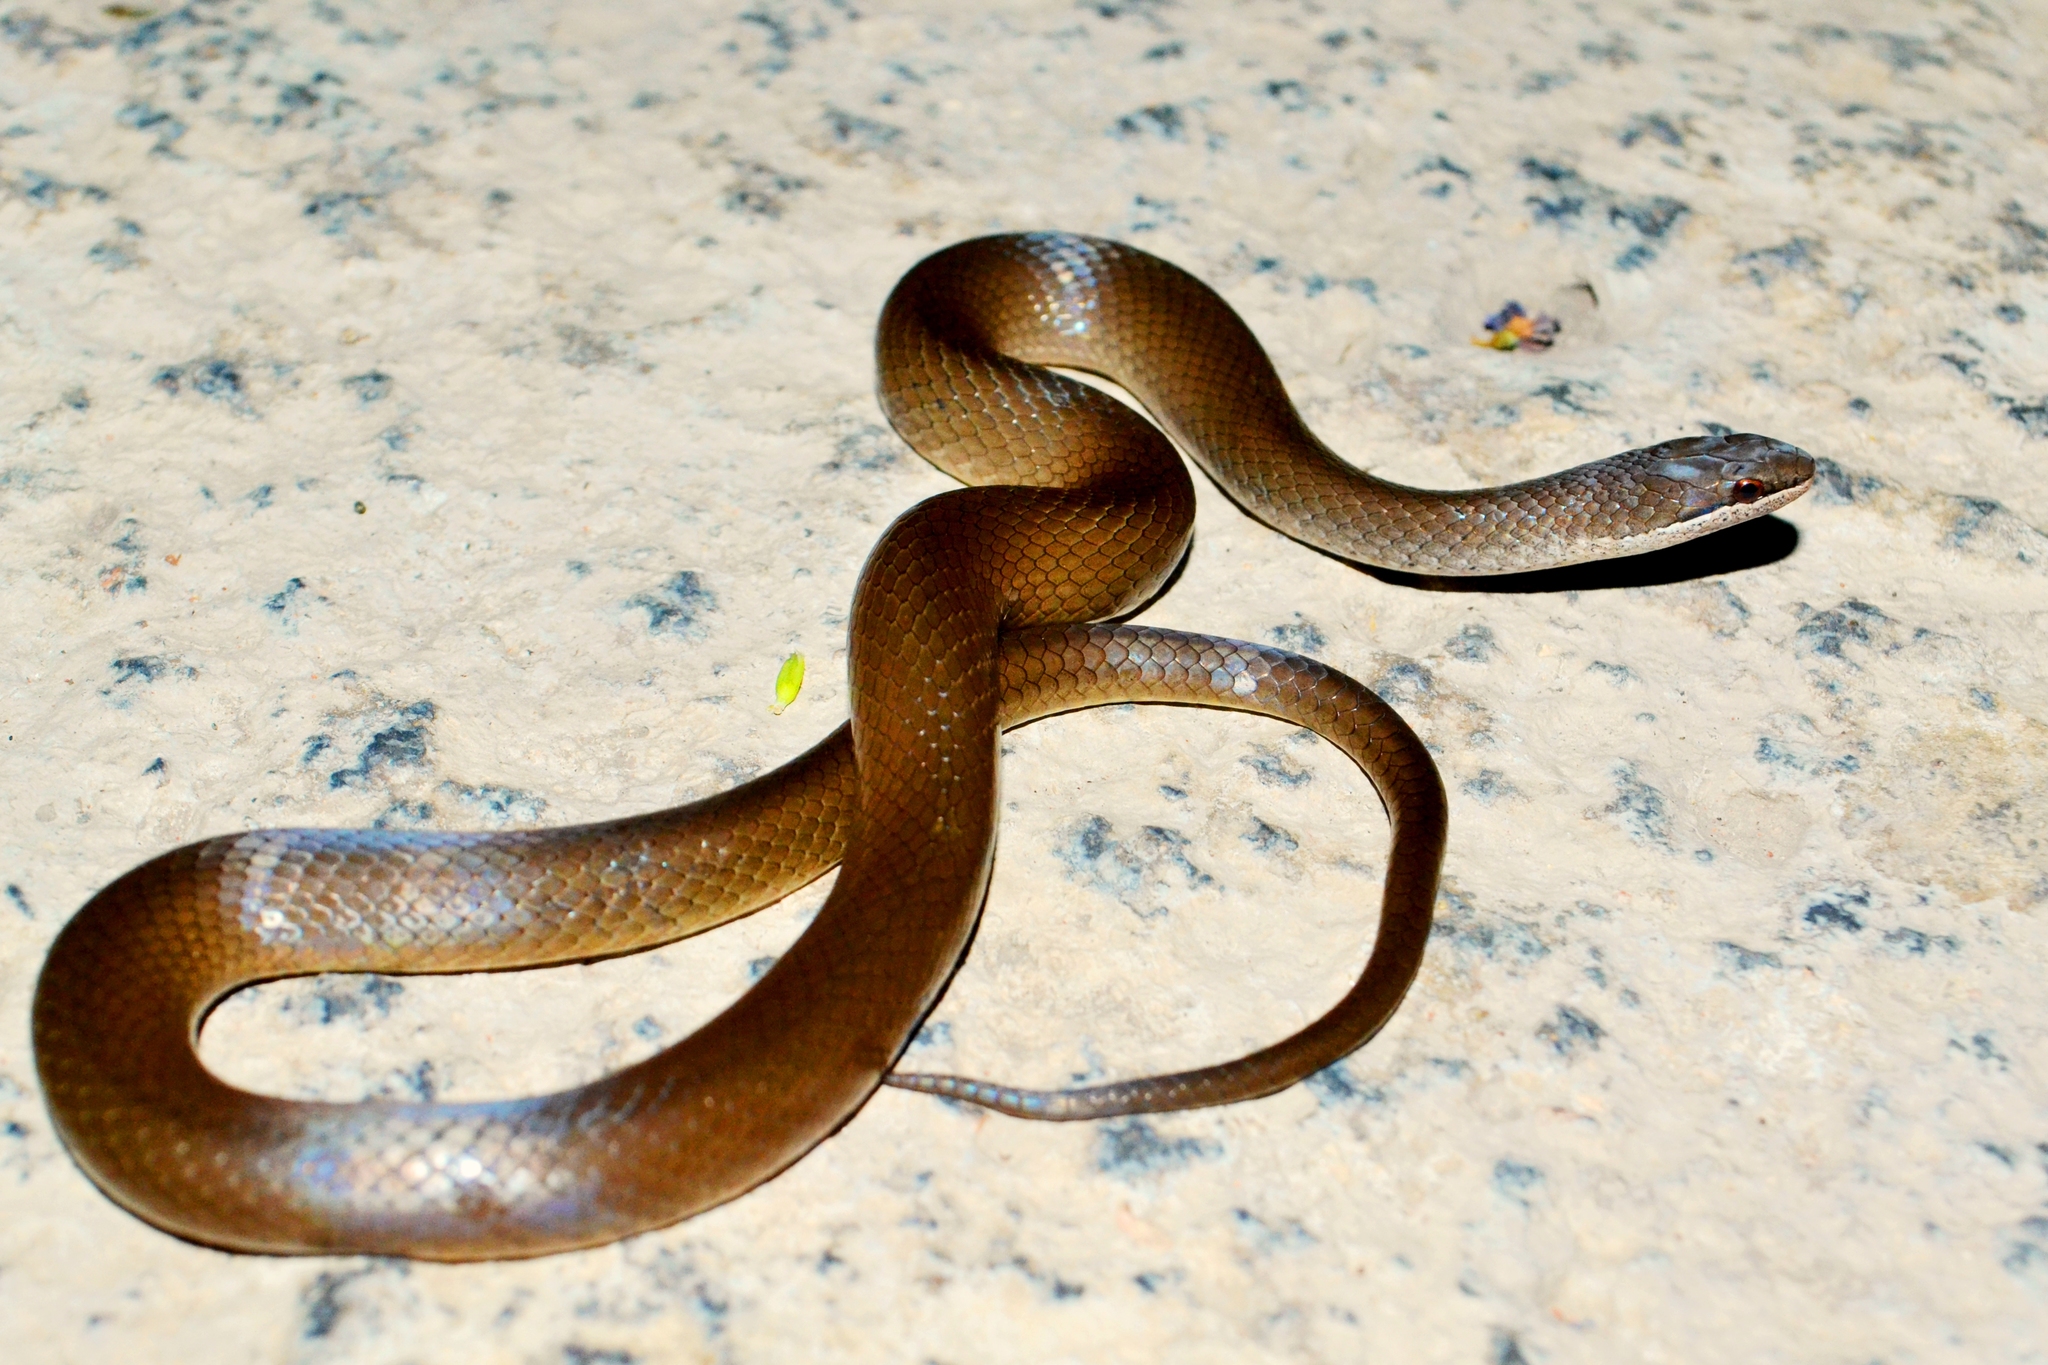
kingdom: Animalia
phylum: Chordata
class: Squamata
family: Colubridae
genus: Coniophanes
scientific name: Coniophanes alvarezi
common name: Chiapan stripeless snake
